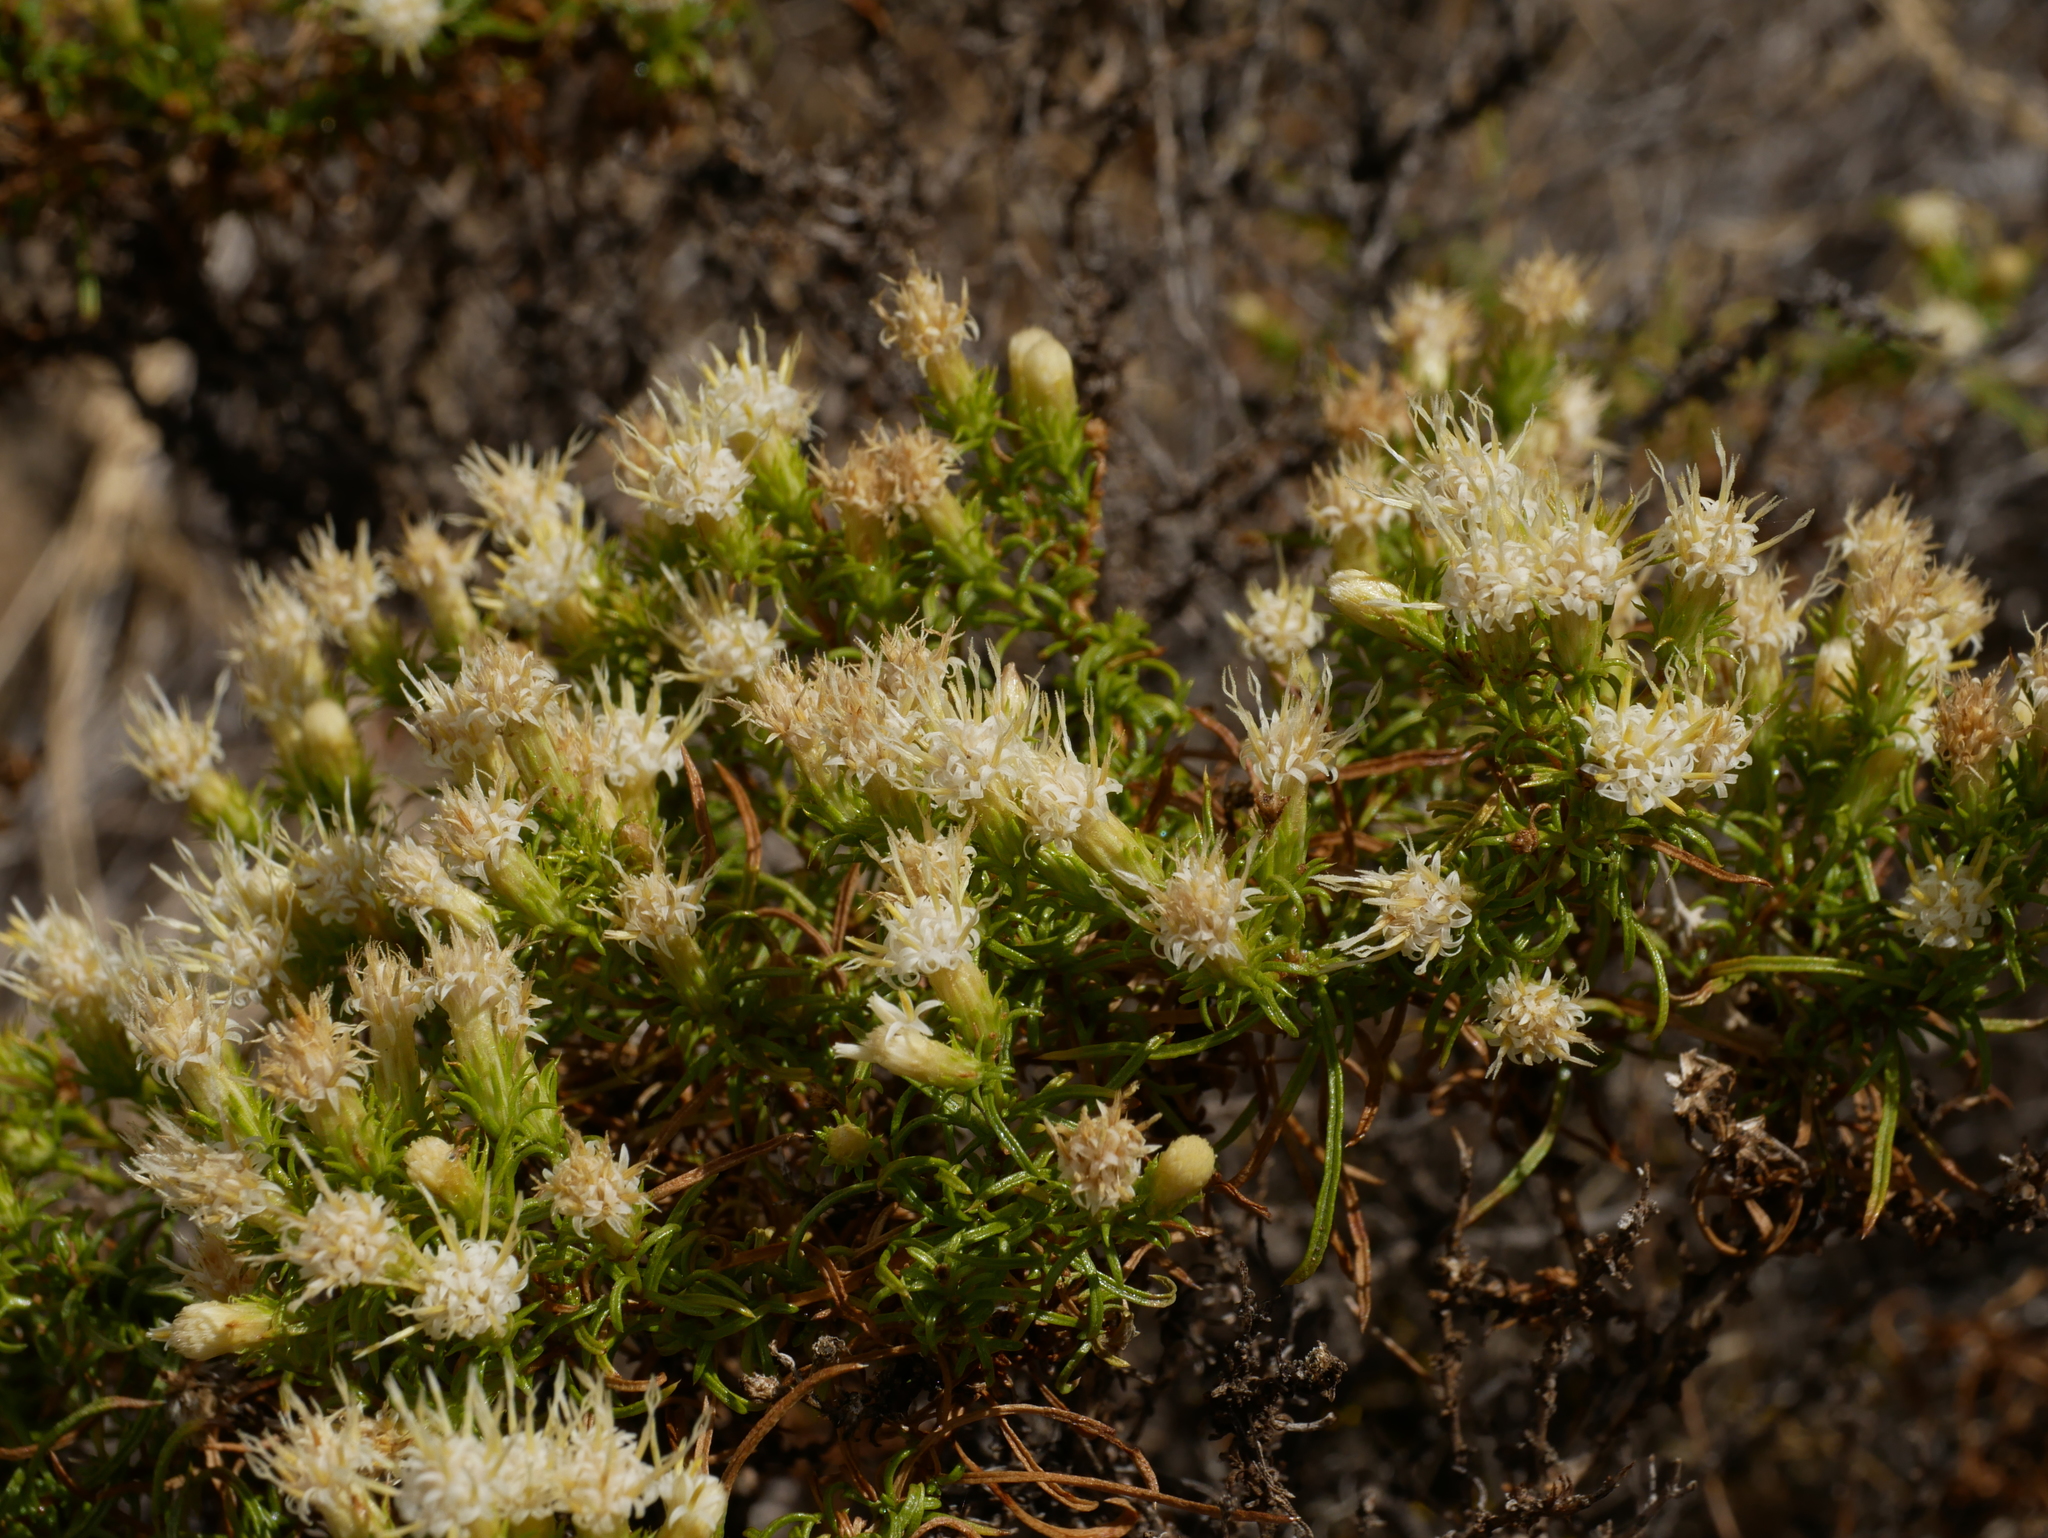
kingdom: Plantae
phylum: Tracheophyta
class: Magnoliopsida
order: Asterales
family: Asteraceae
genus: Ericameria
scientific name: Ericameria resinosa
